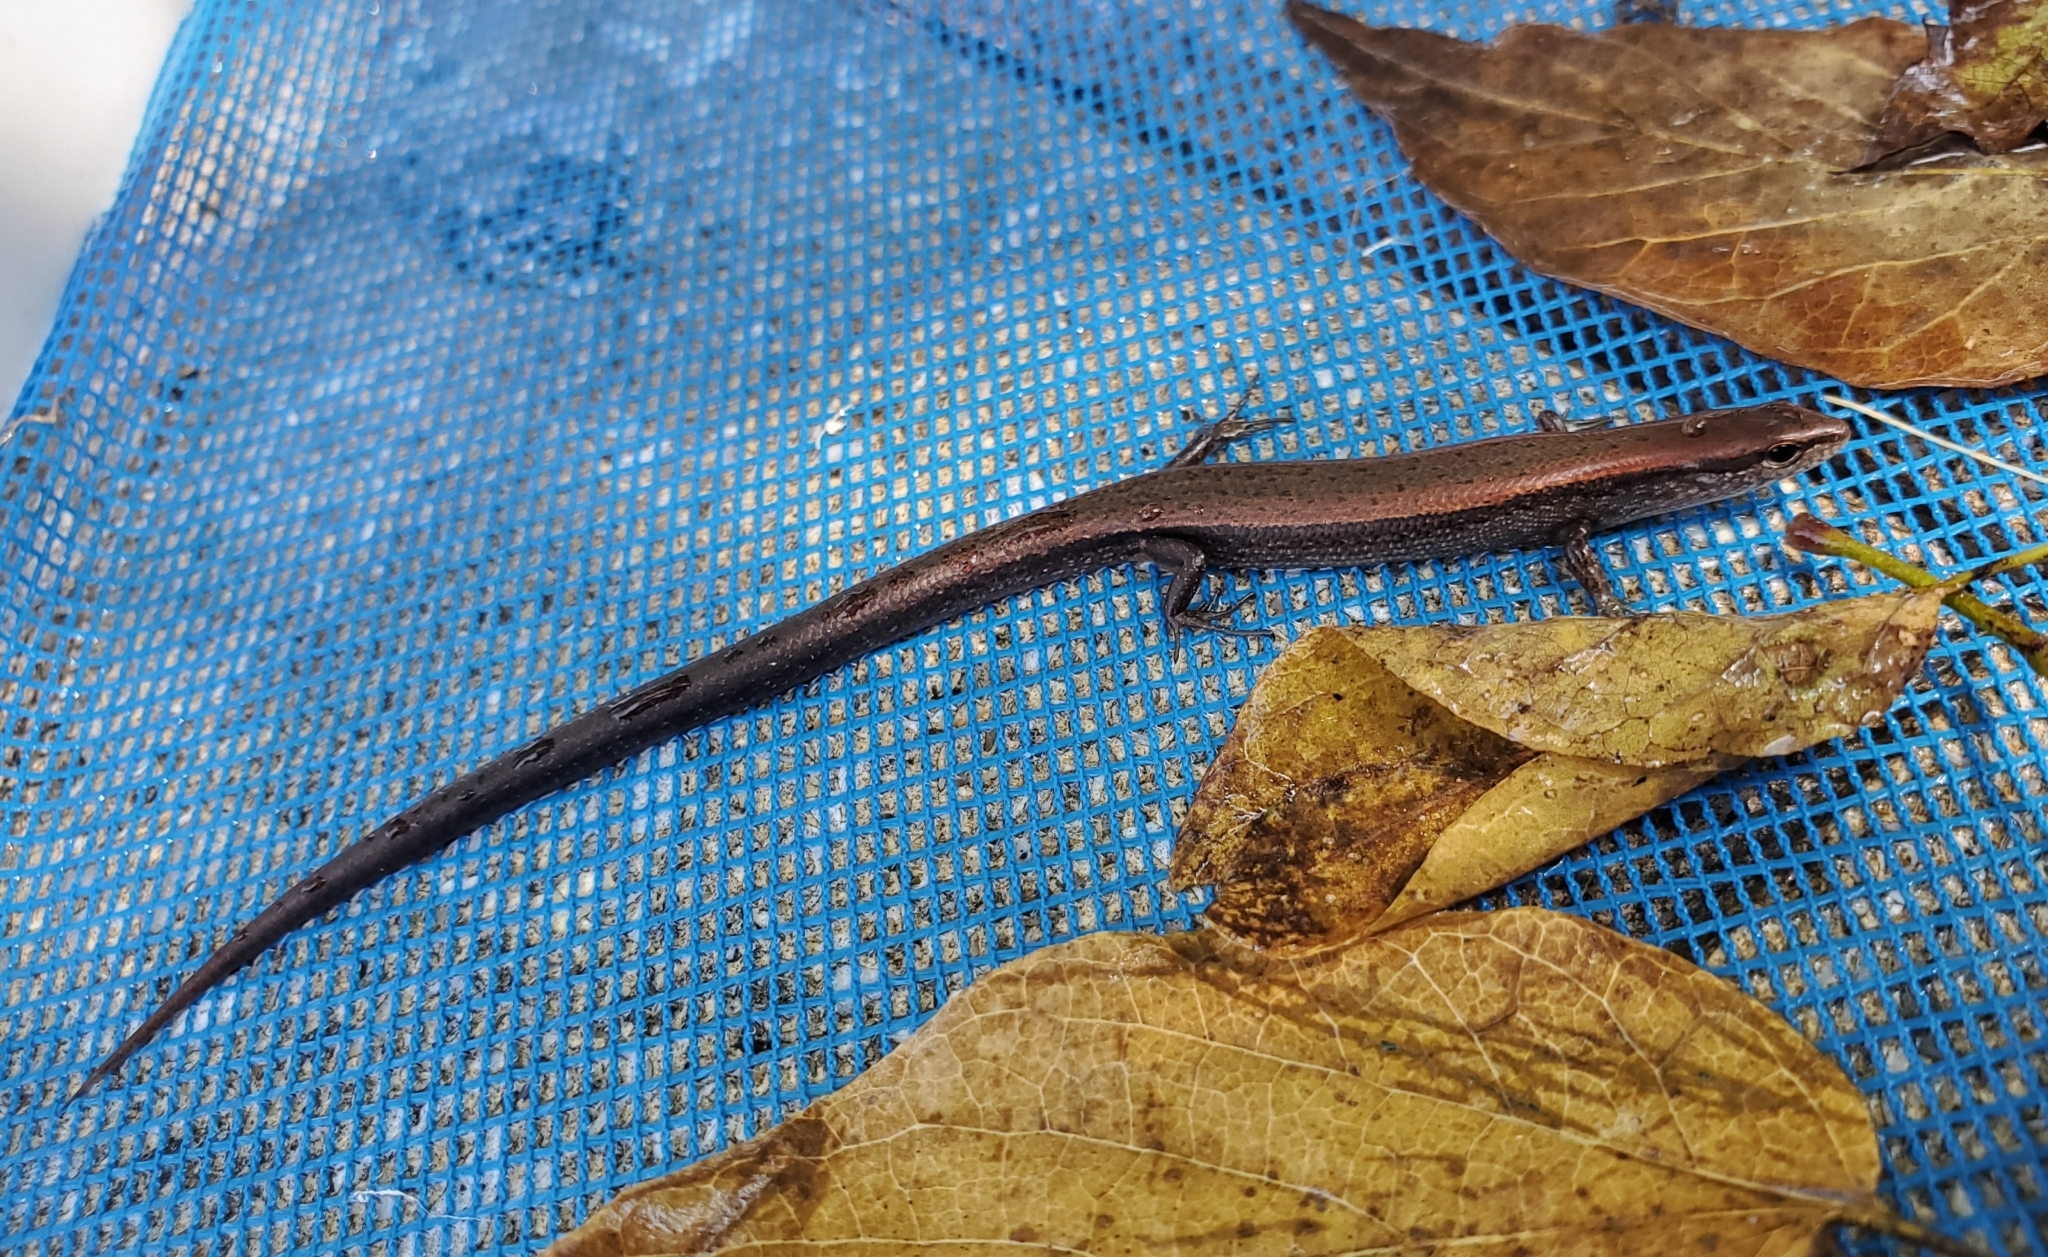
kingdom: Animalia
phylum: Chordata
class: Squamata
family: Scincidae
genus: Scincella
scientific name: Scincella lateralis
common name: Ground skink
